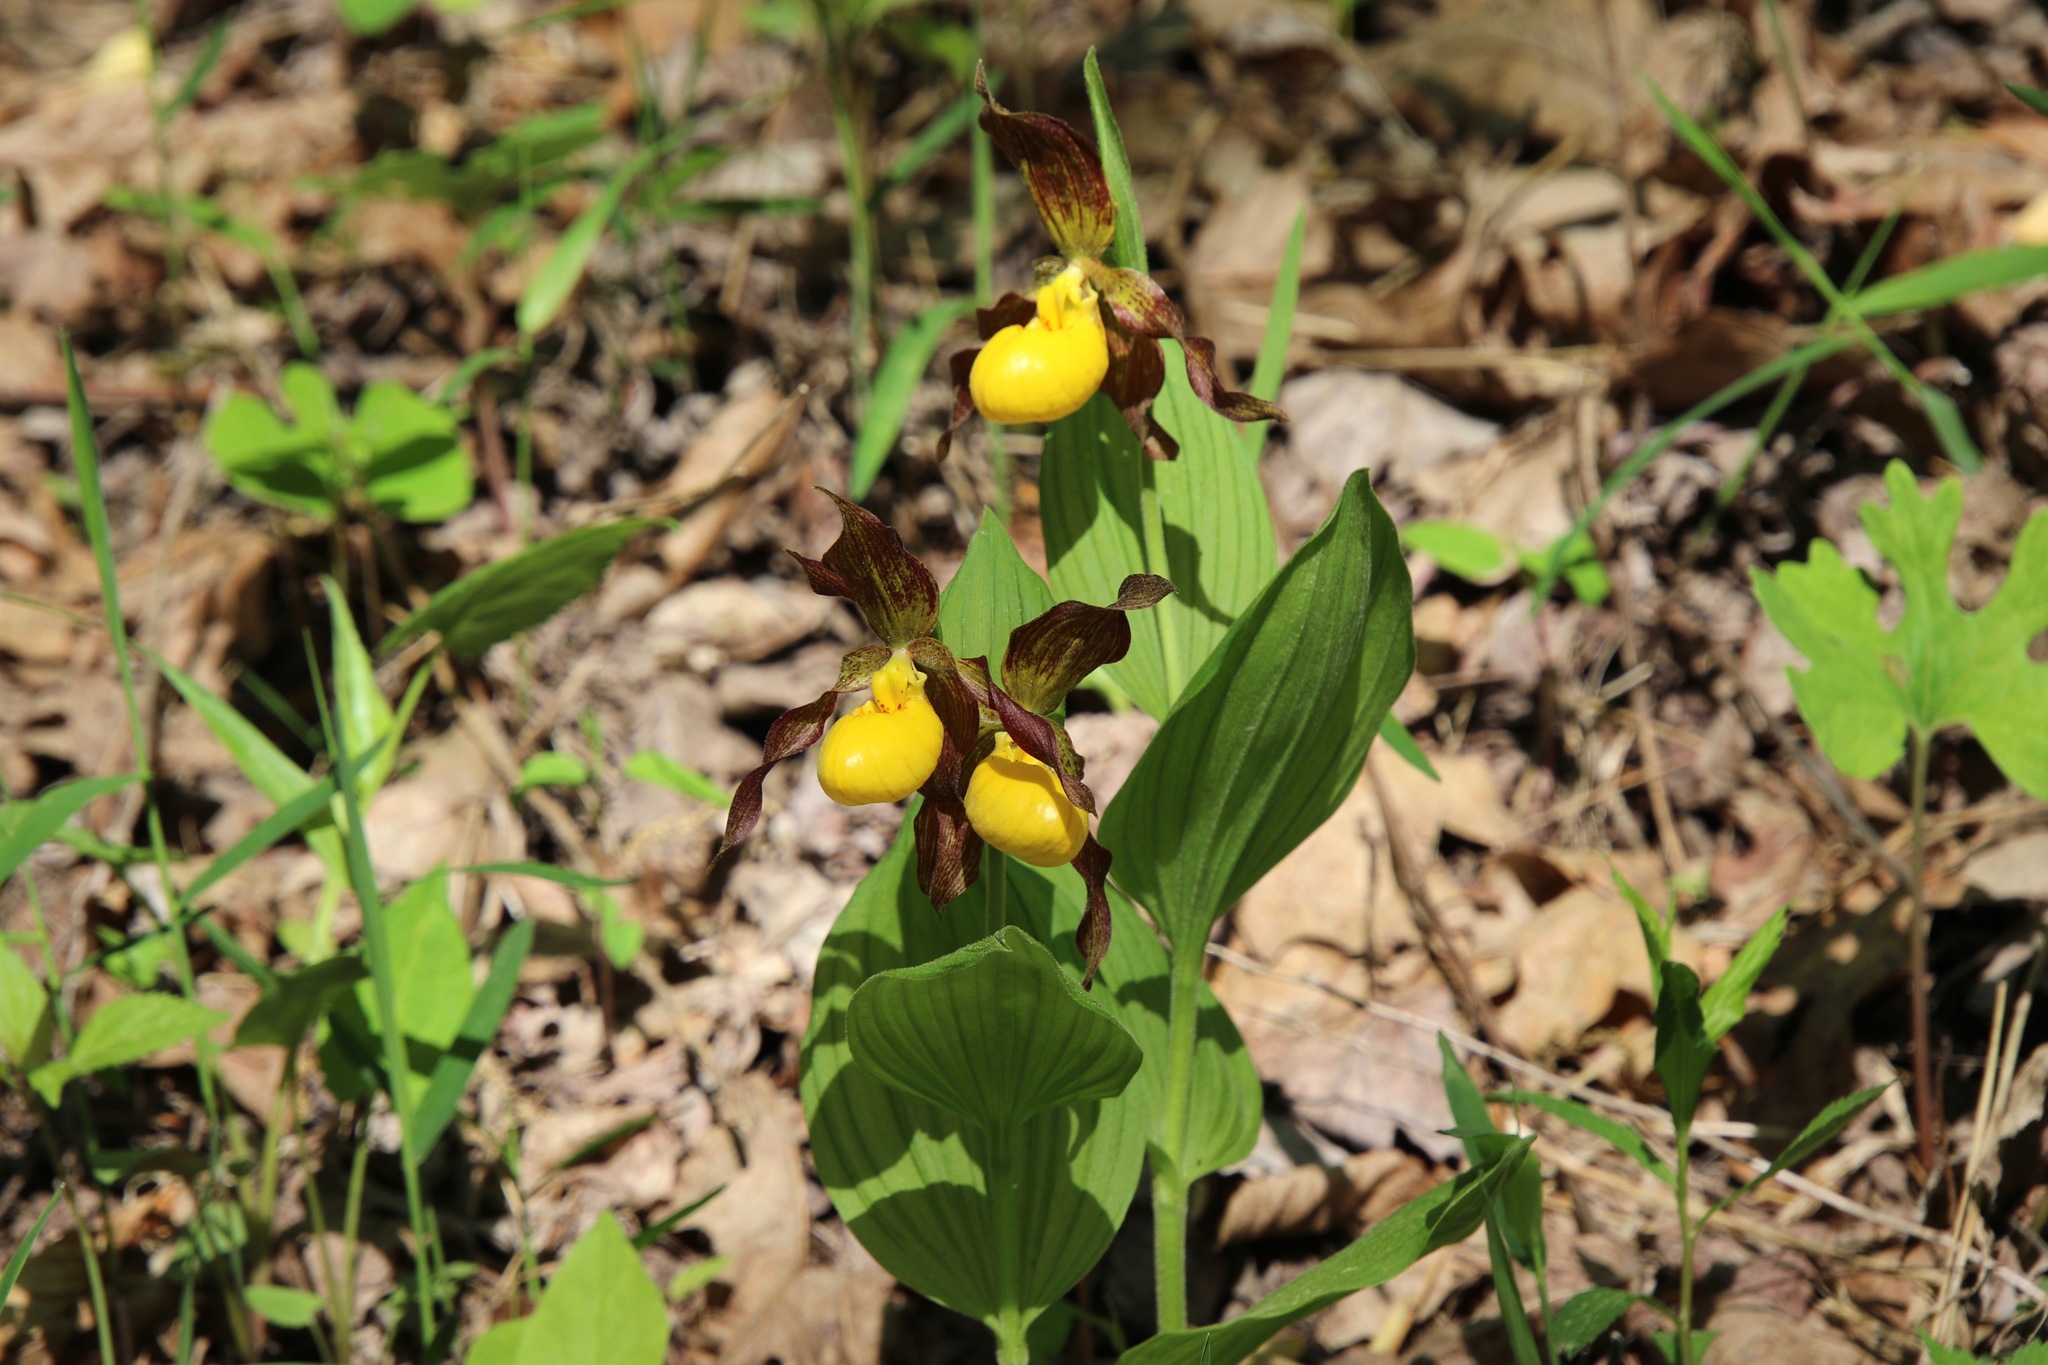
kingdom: Plantae
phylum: Tracheophyta
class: Liliopsida
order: Asparagales
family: Orchidaceae
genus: Cypripedium
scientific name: Cypripedium parviflorum
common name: American yellow lady's-slipper
